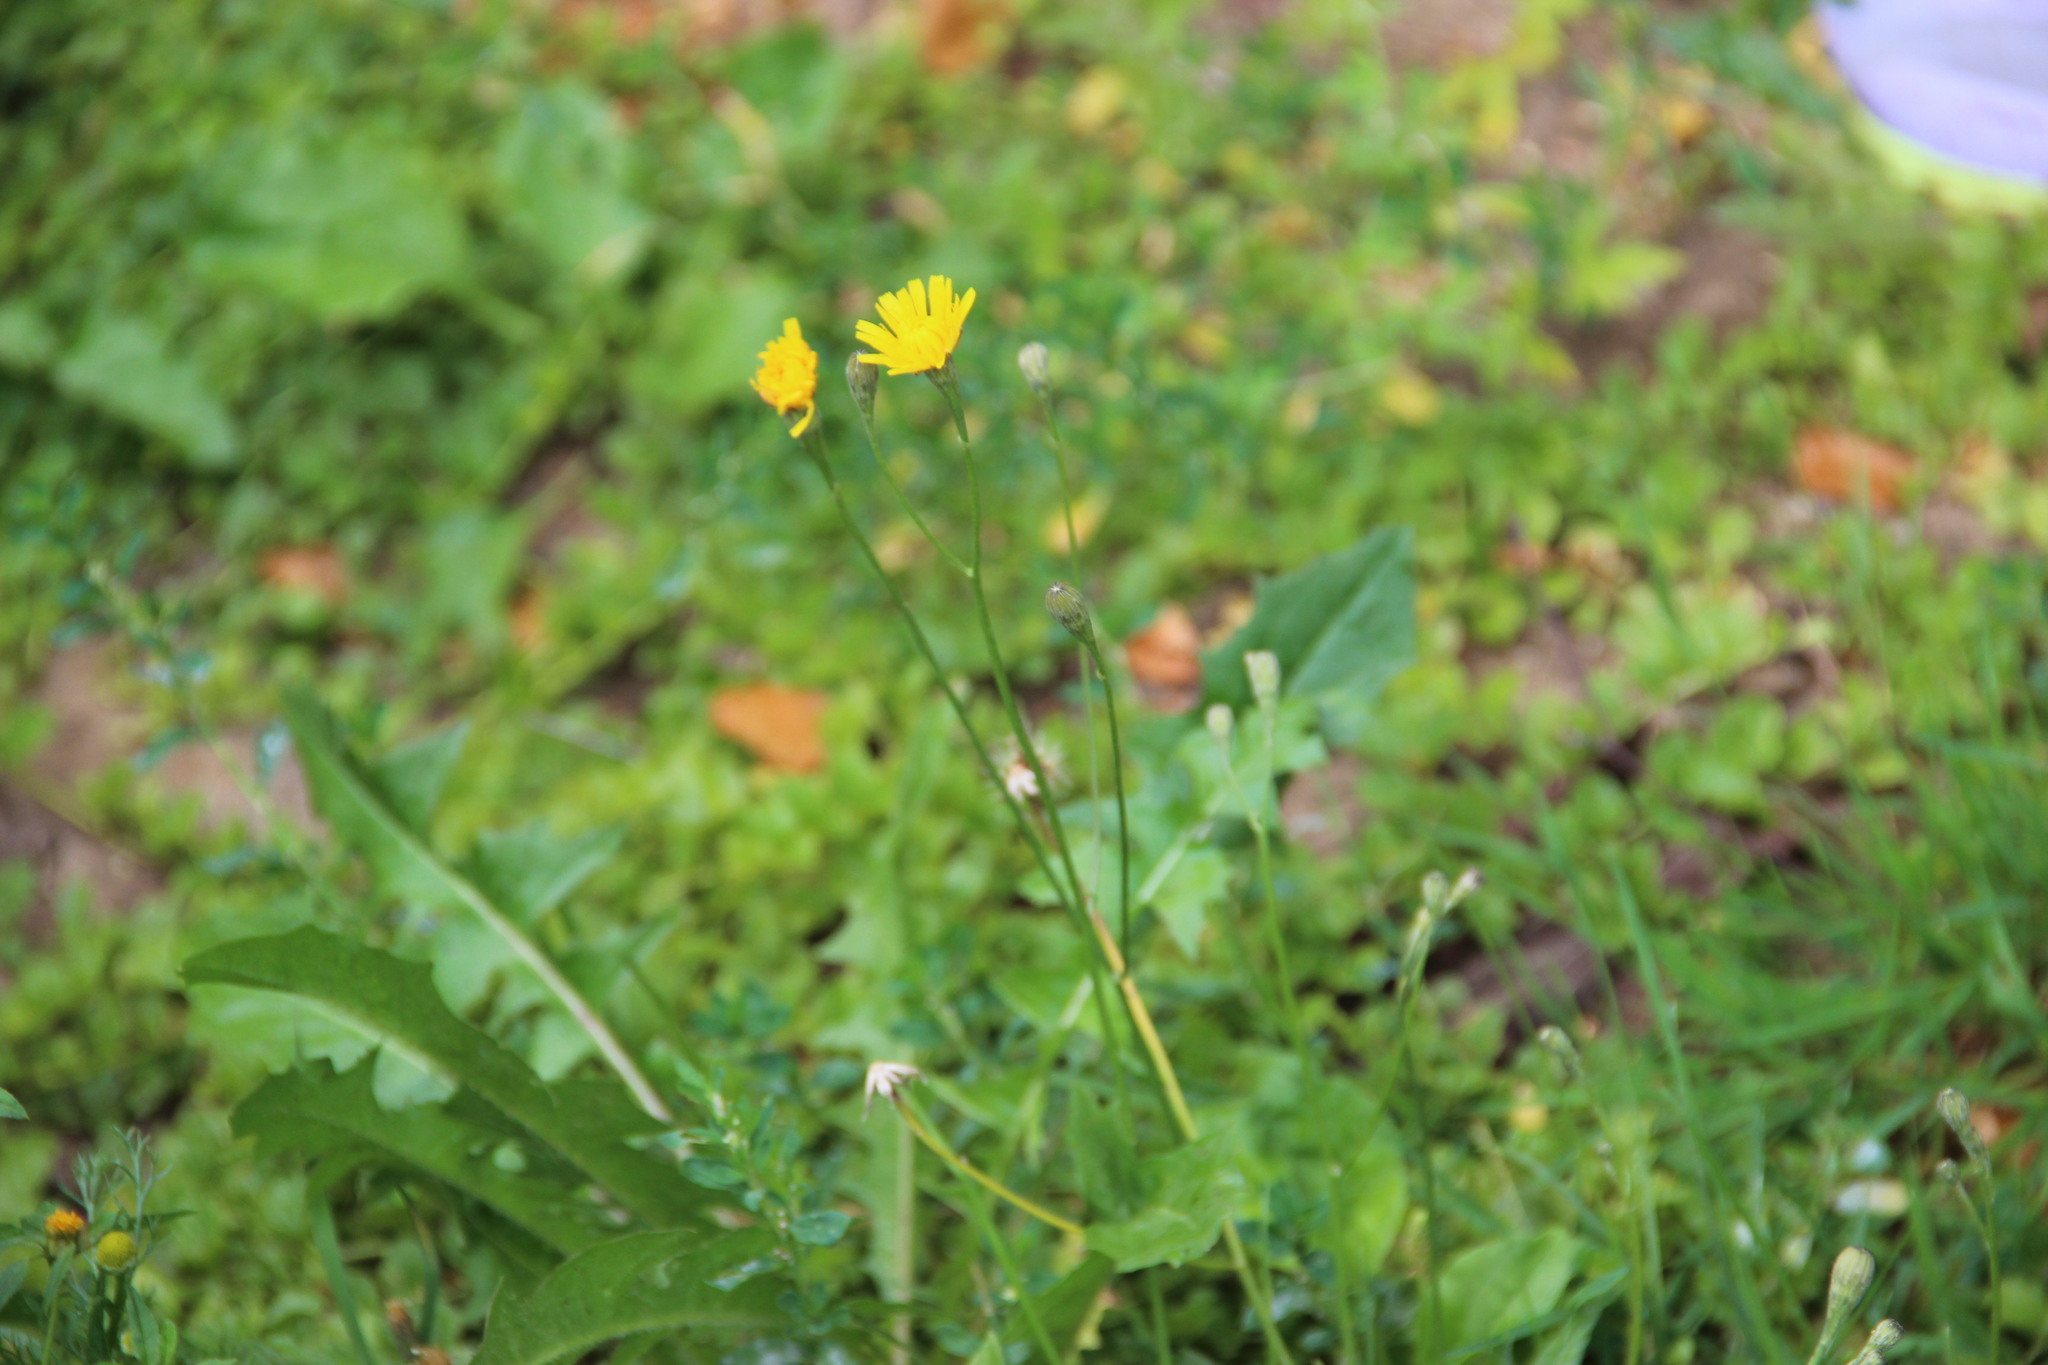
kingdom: Plantae
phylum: Tracheophyta
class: Magnoliopsida
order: Asterales
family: Asteraceae
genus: Scorzoneroides
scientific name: Scorzoneroides autumnalis
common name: Autumn hawkbit
